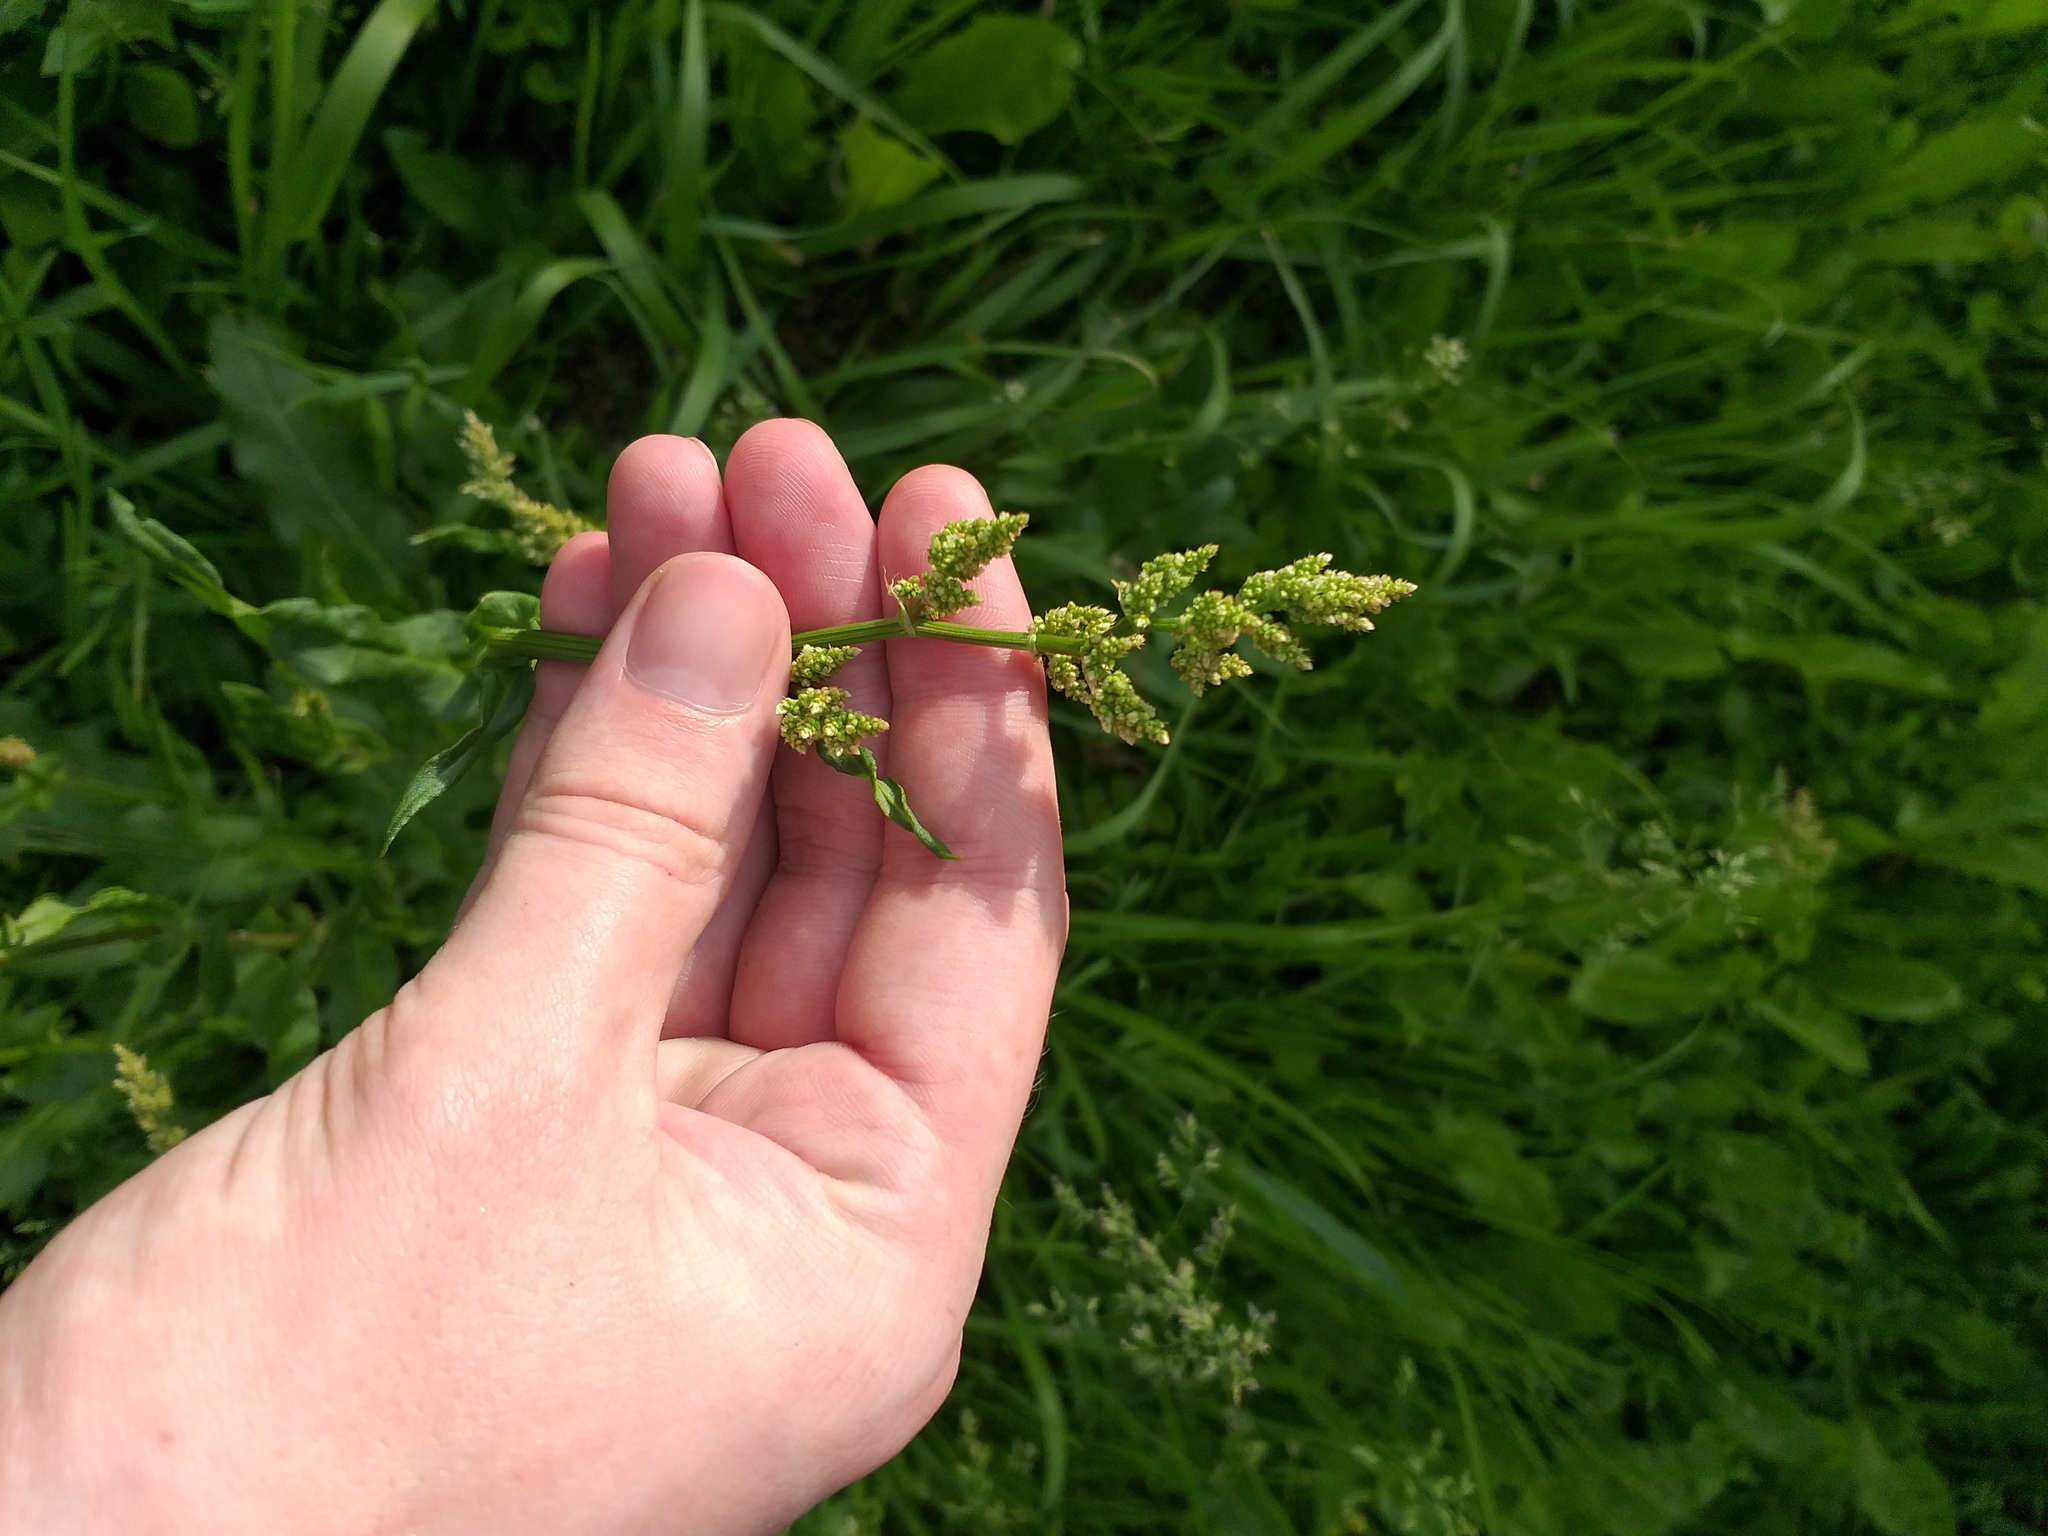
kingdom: Plantae
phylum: Tracheophyta
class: Magnoliopsida
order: Caryophyllales
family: Polygonaceae
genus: Rumex
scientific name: Rumex thyrsiflorus
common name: Garden sorrel
